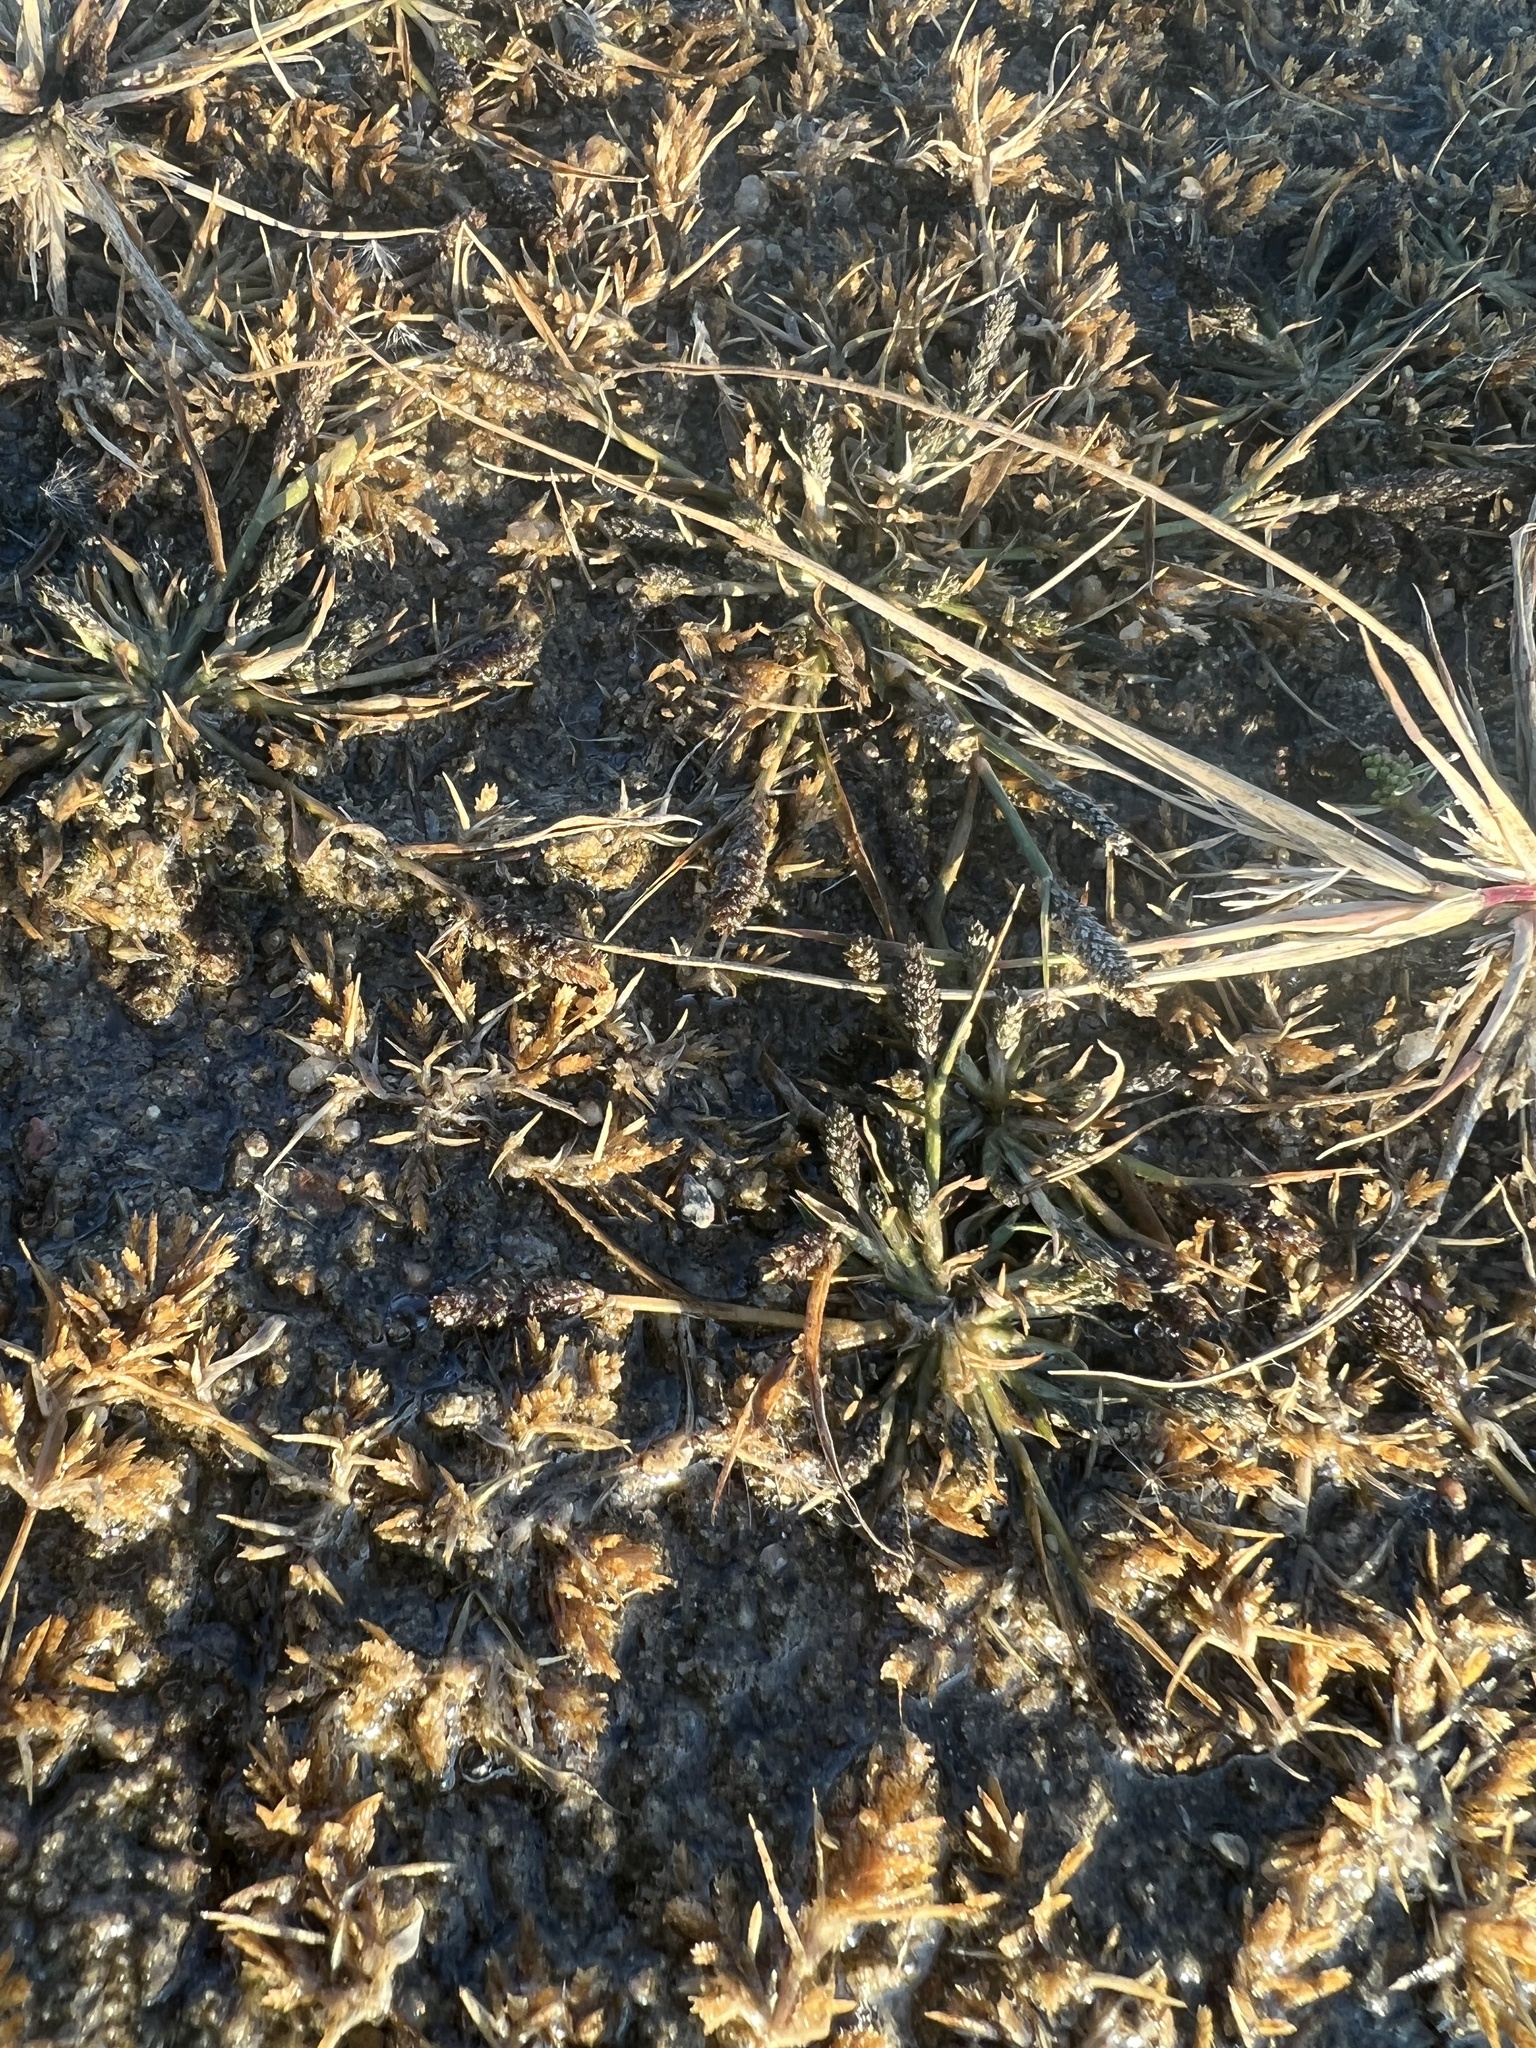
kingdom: Plantae
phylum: Tracheophyta
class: Liliopsida
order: Poales
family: Poaceae
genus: Sporobolus
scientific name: Sporobolus alopecuroides
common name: Foxtail pricklegrass
